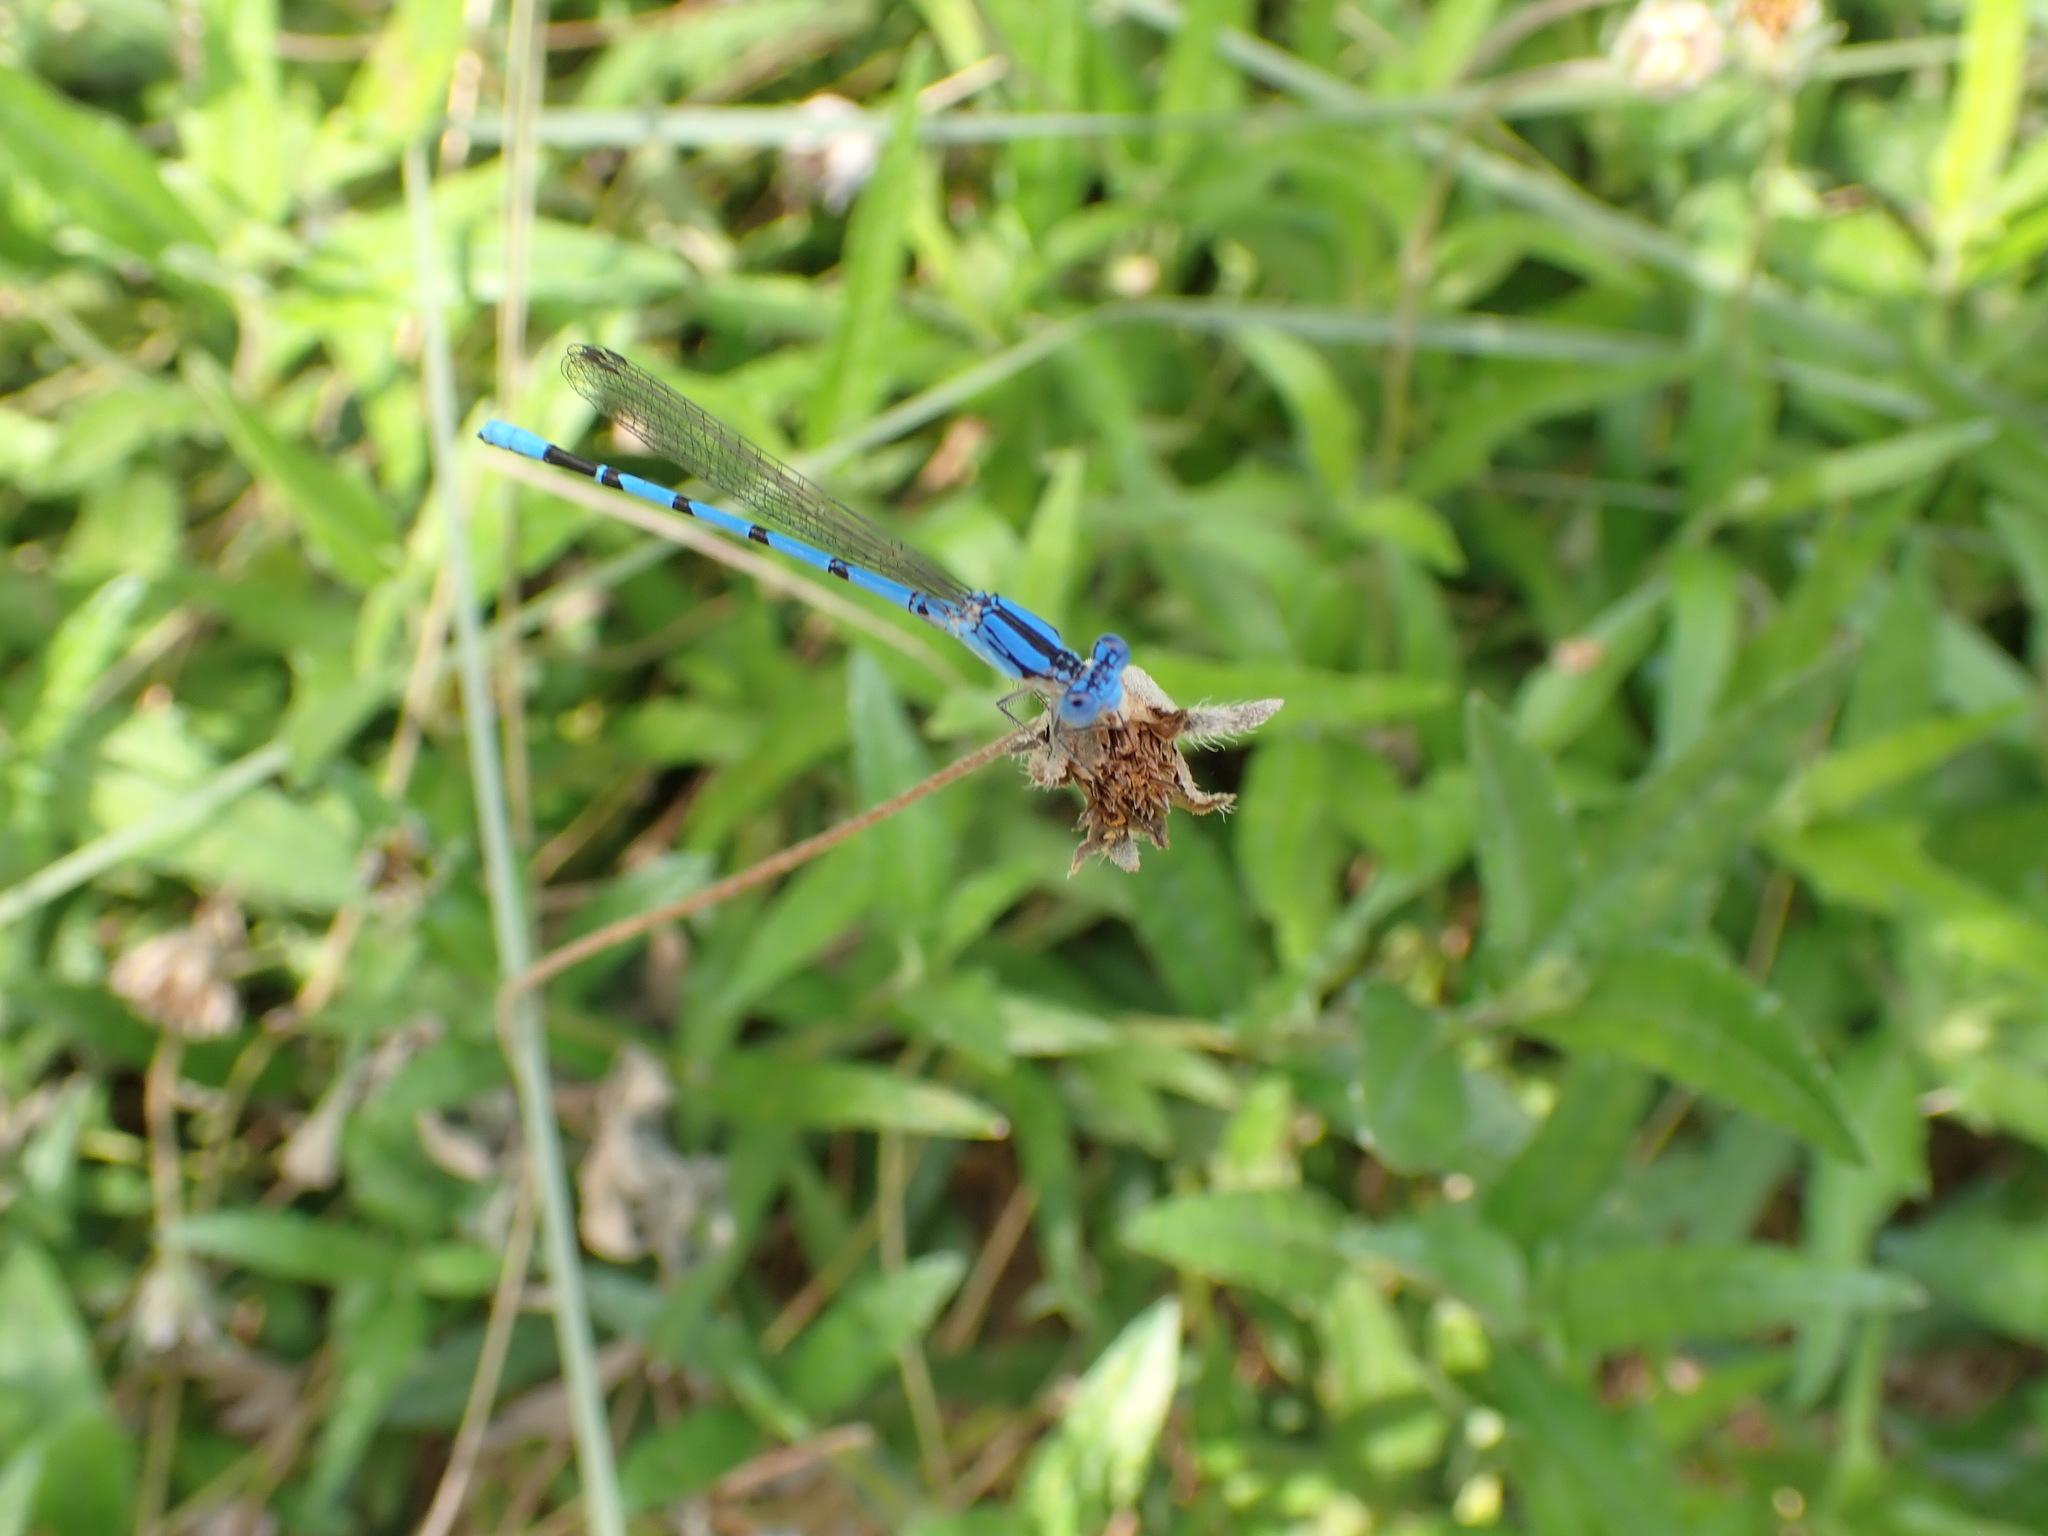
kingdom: Animalia
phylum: Arthropoda
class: Insecta
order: Odonata
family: Coenagrionidae
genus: Argia
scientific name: Argia nahuana
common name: Aztec dancer
